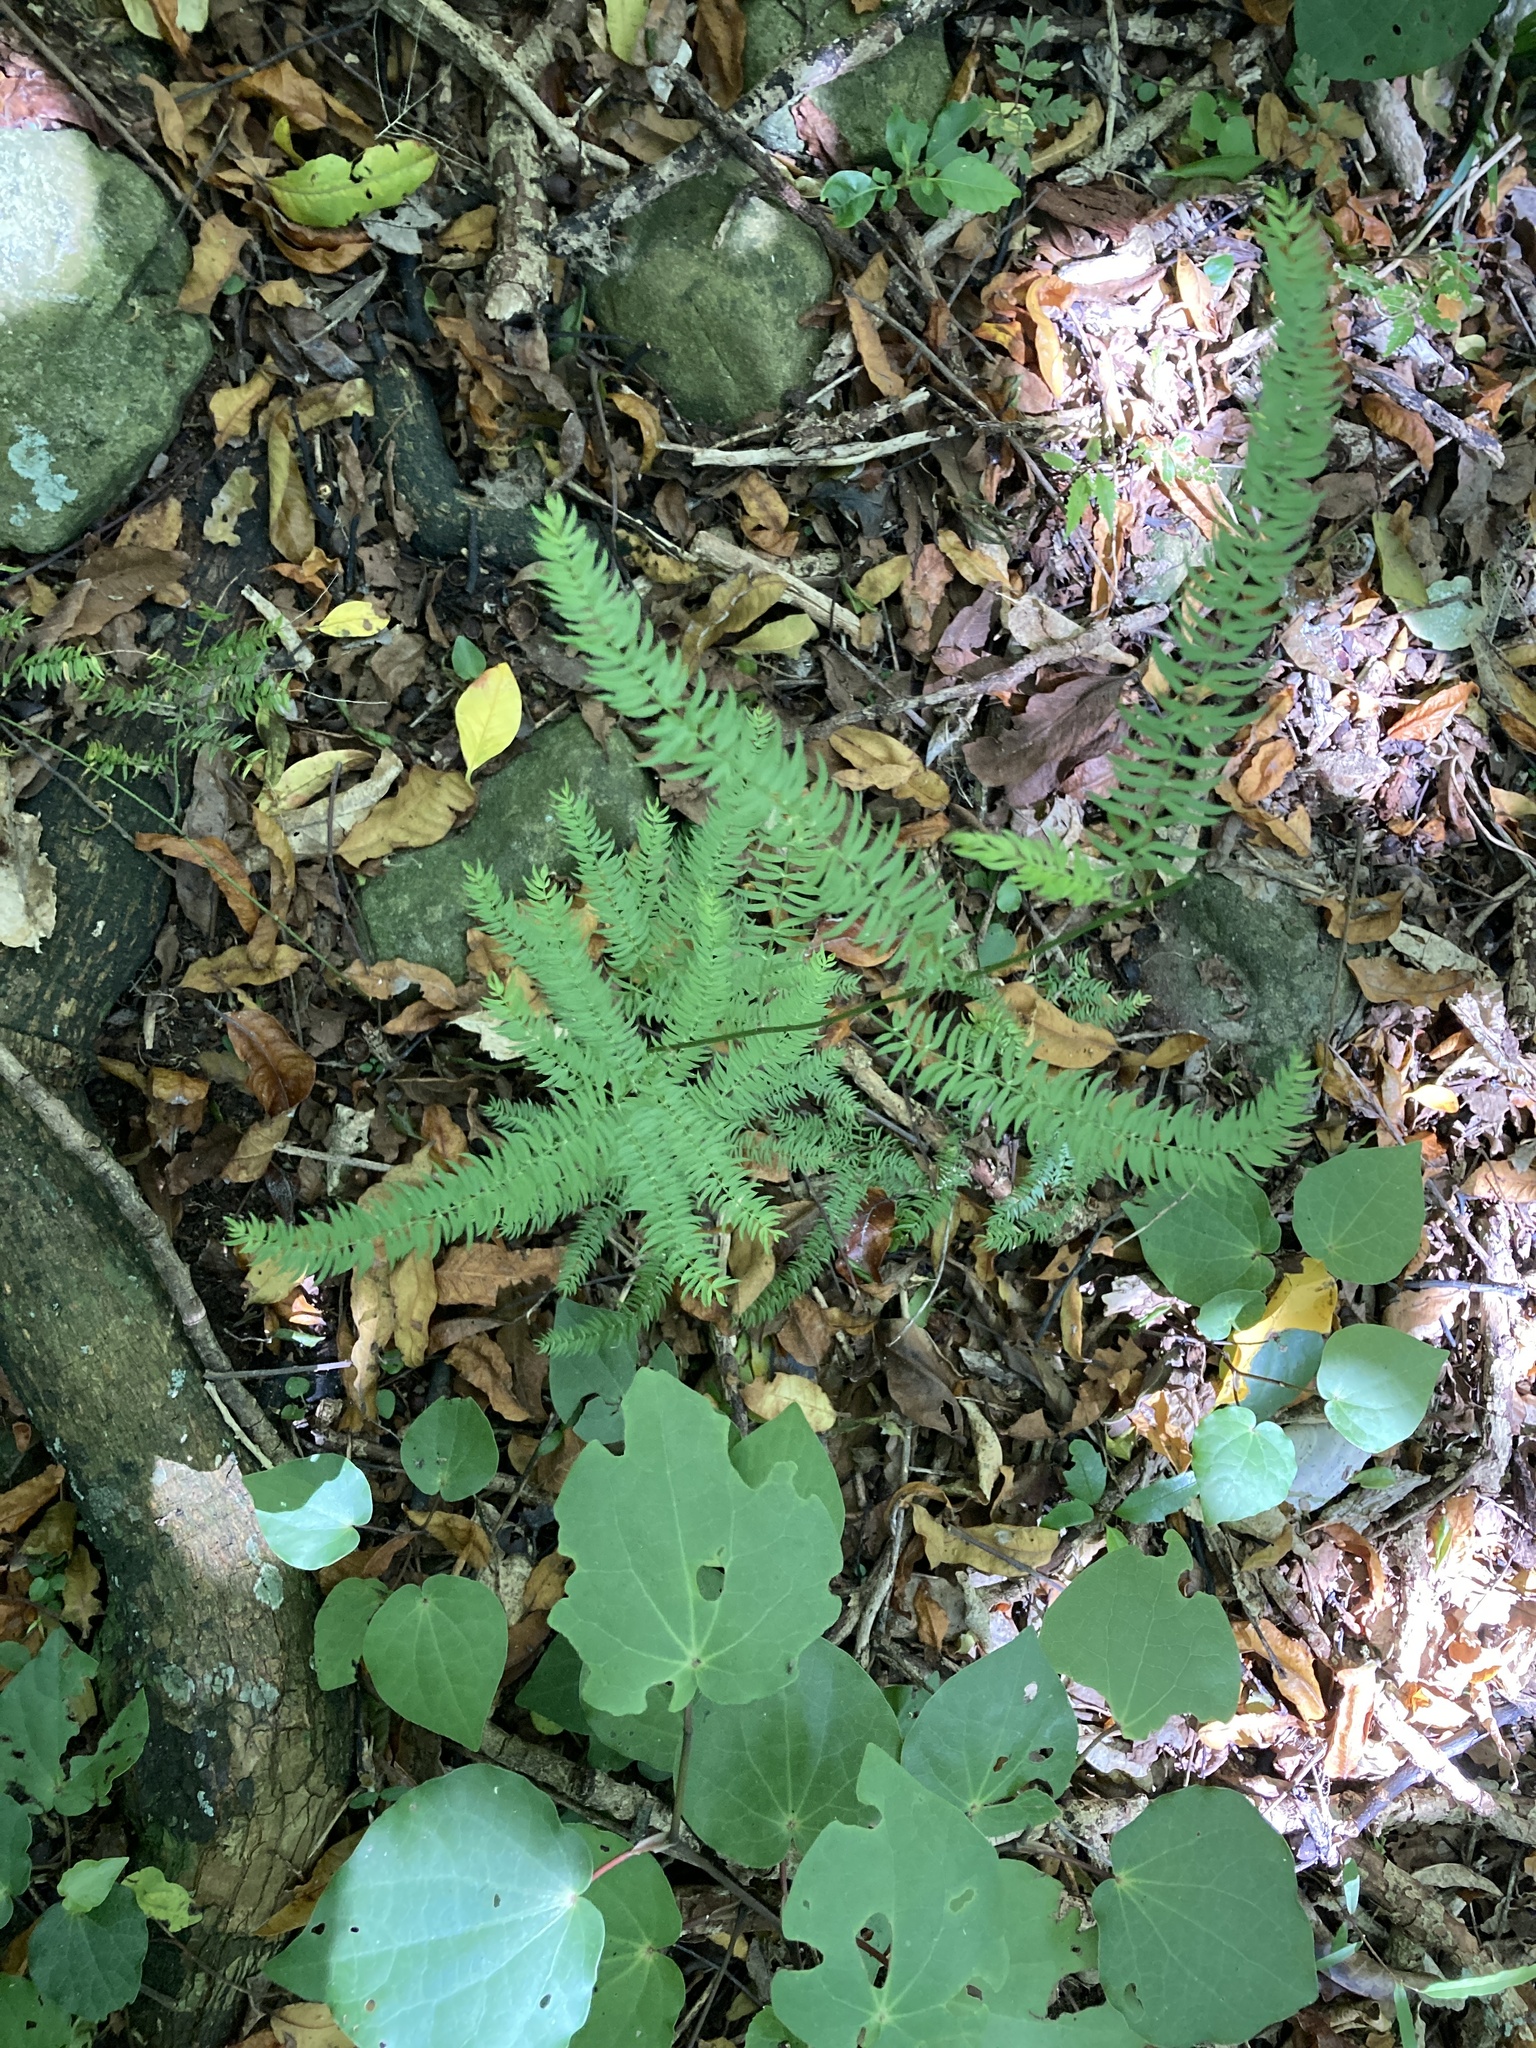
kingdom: Plantae
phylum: Tracheophyta
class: Liliopsida
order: Asparagales
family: Asparagaceae
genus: Asparagus
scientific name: Asparagus scandens
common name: Asparagus-fern
